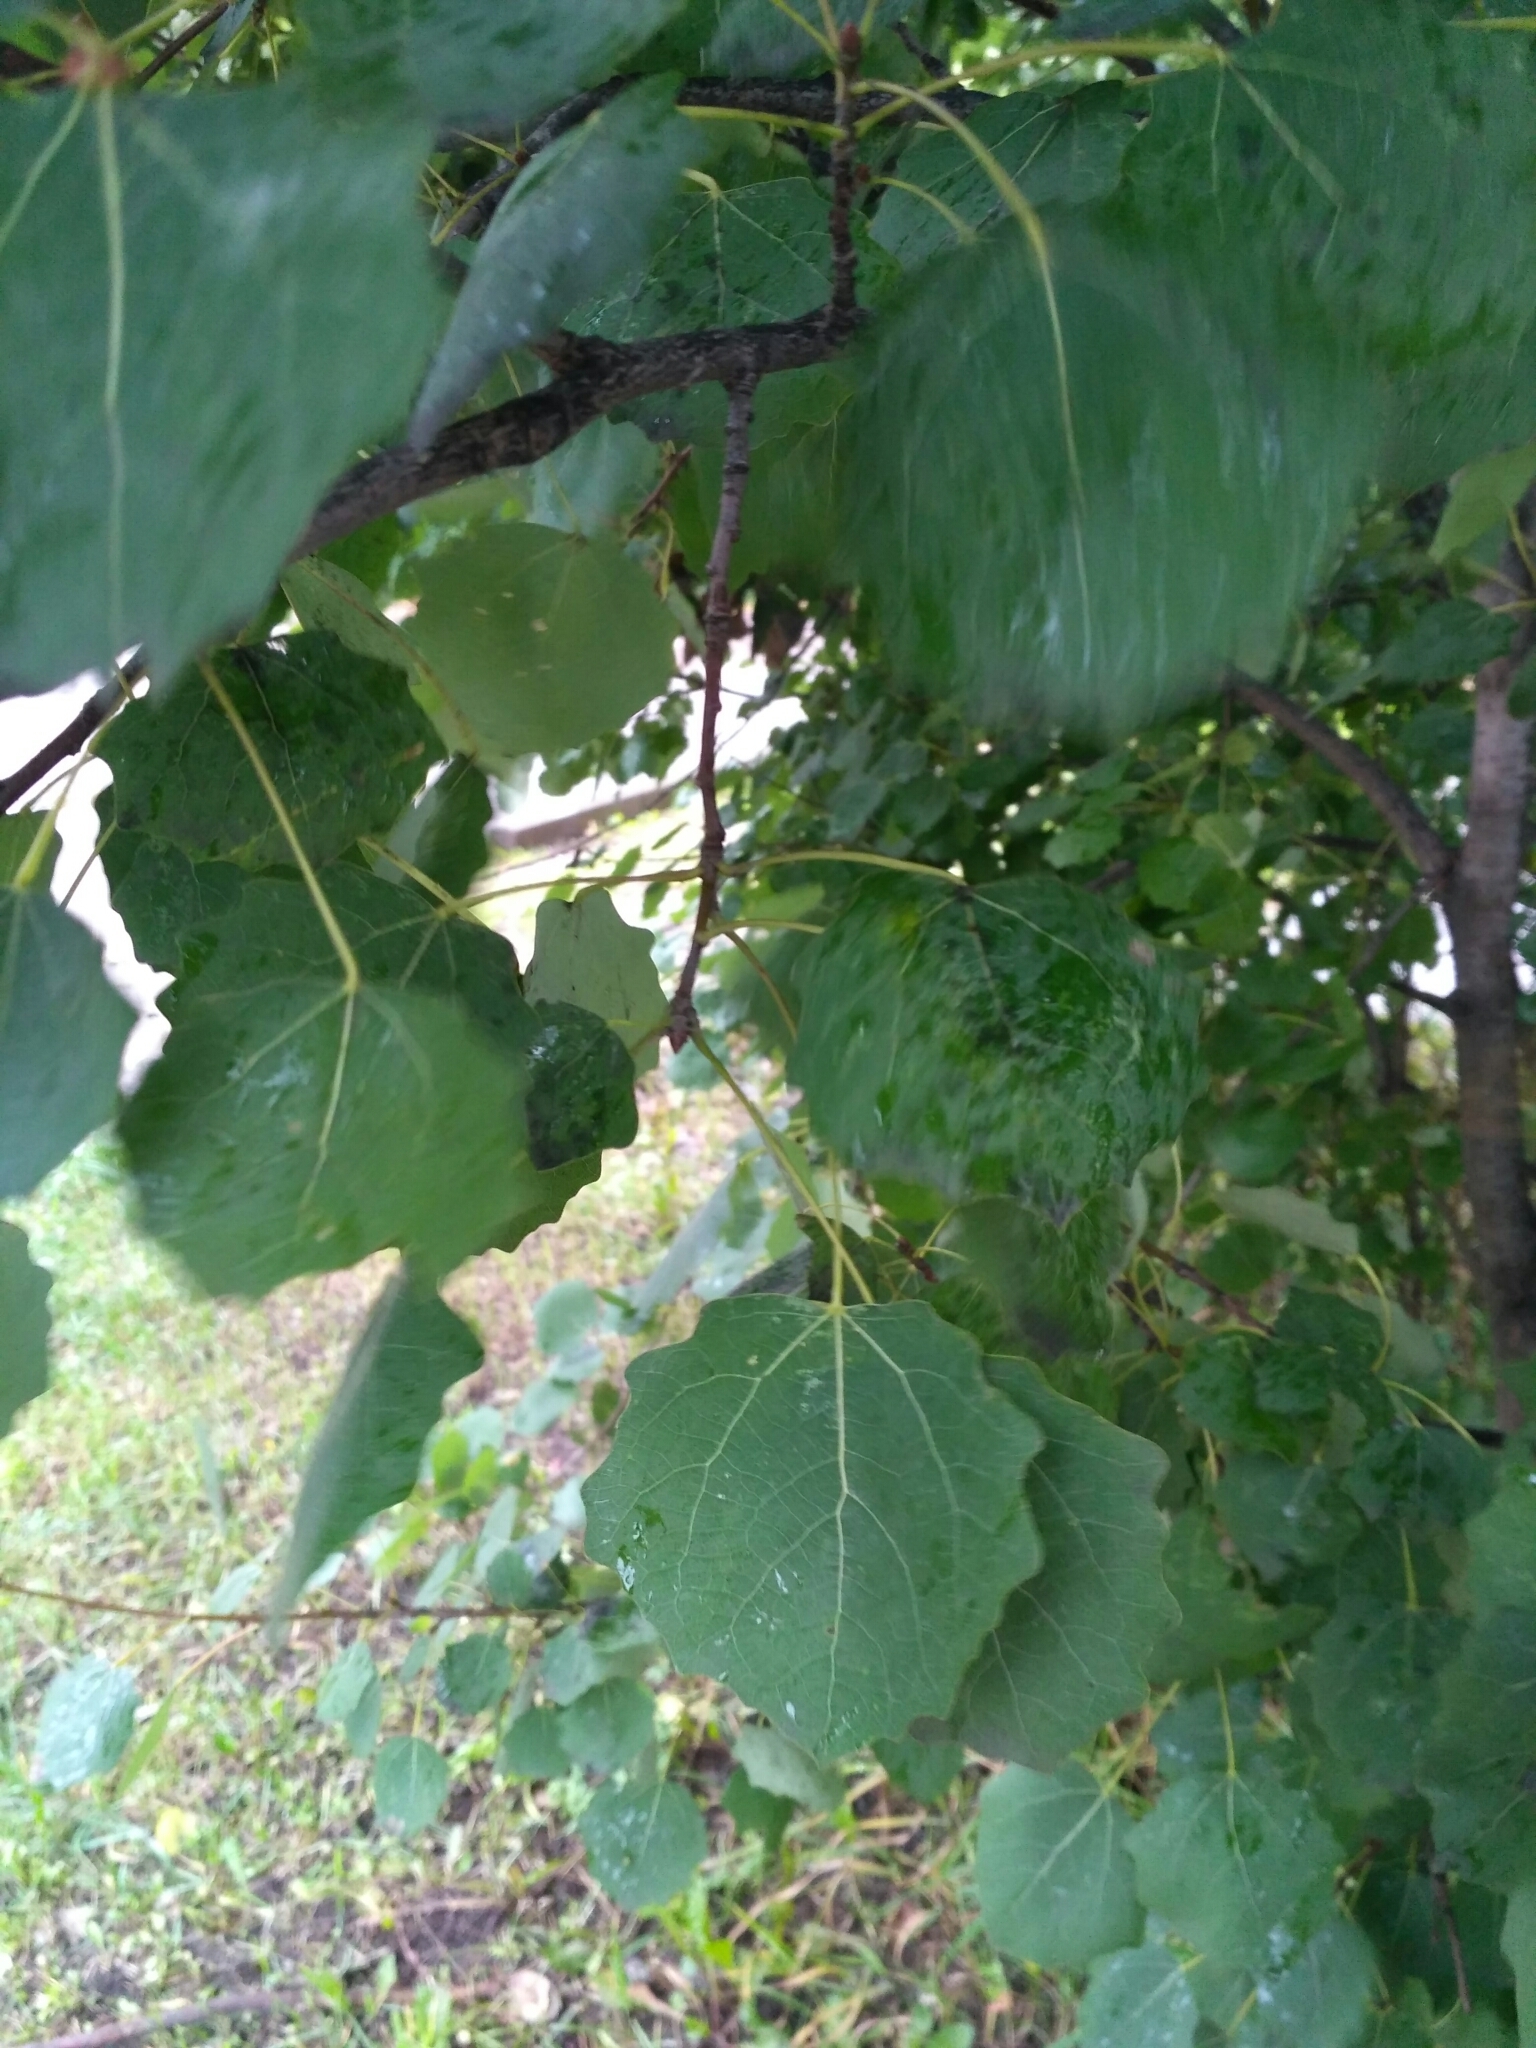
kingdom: Plantae
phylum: Tracheophyta
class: Magnoliopsida
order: Malpighiales
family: Salicaceae
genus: Populus
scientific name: Populus tremula
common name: European aspen
